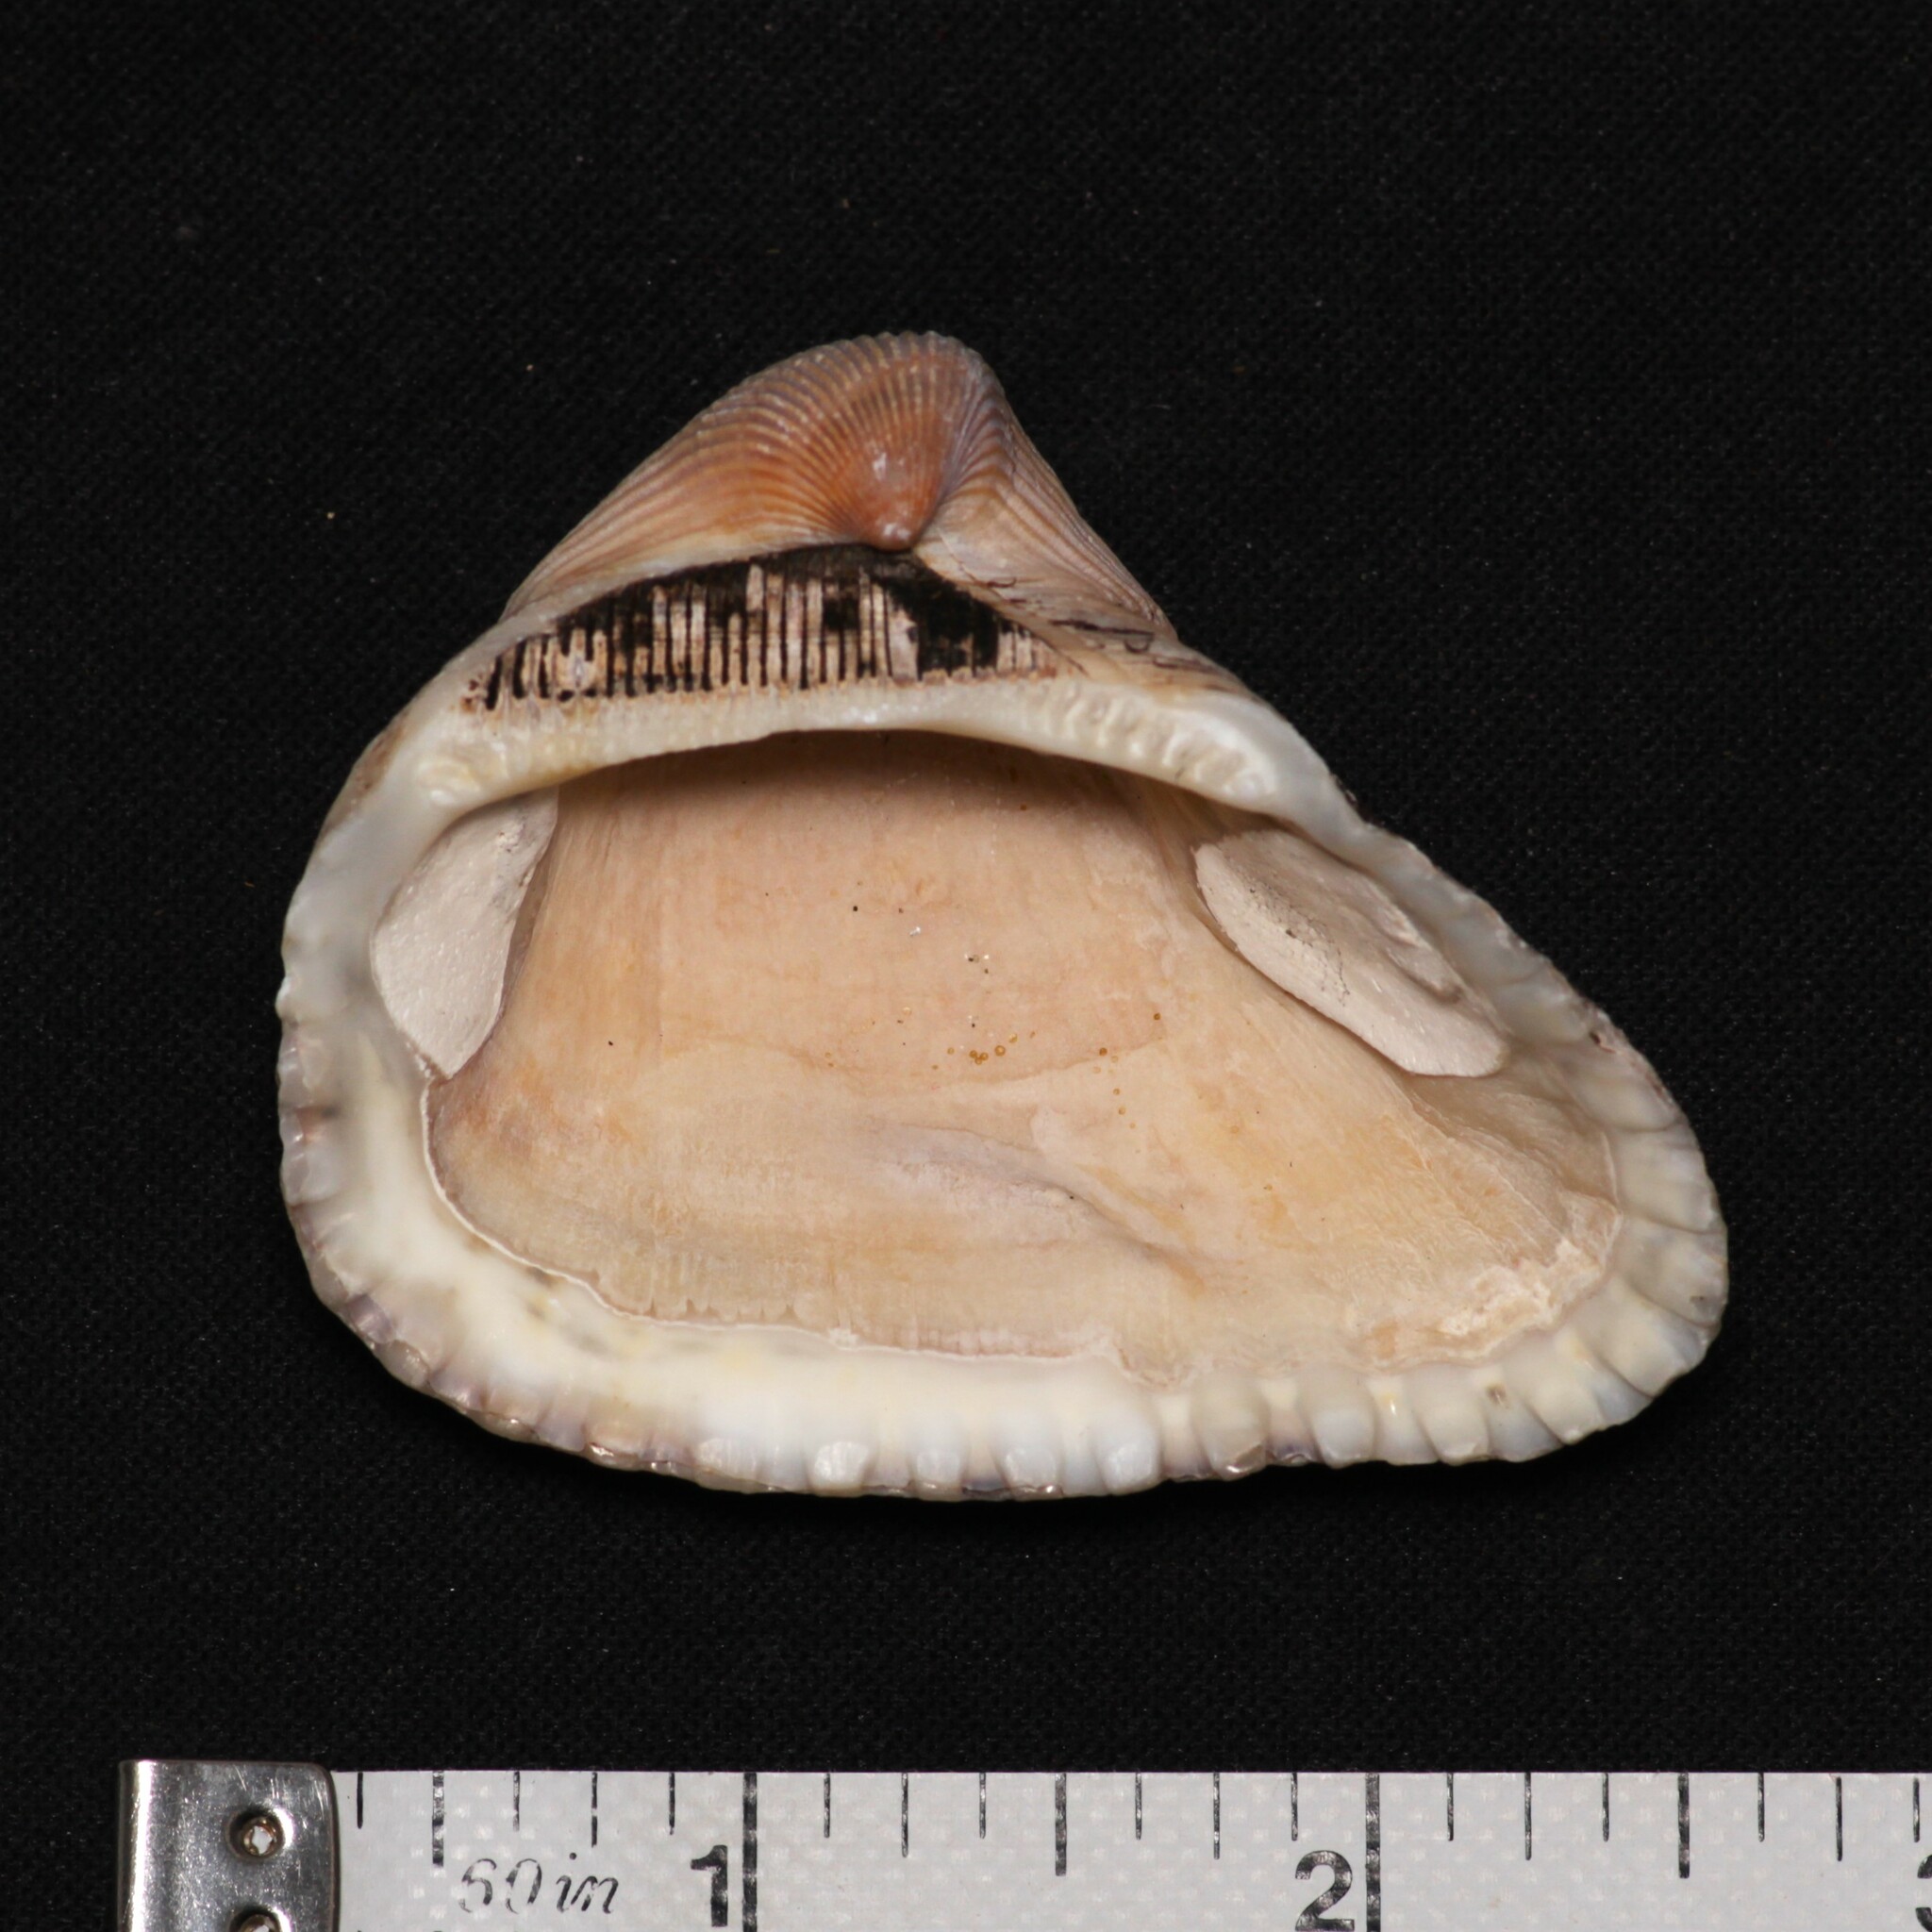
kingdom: Animalia
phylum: Mollusca
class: Bivalvia
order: Arcida
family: Noetiidae
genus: Noetia
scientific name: Noetia ponderosa
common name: Ponderous ark
